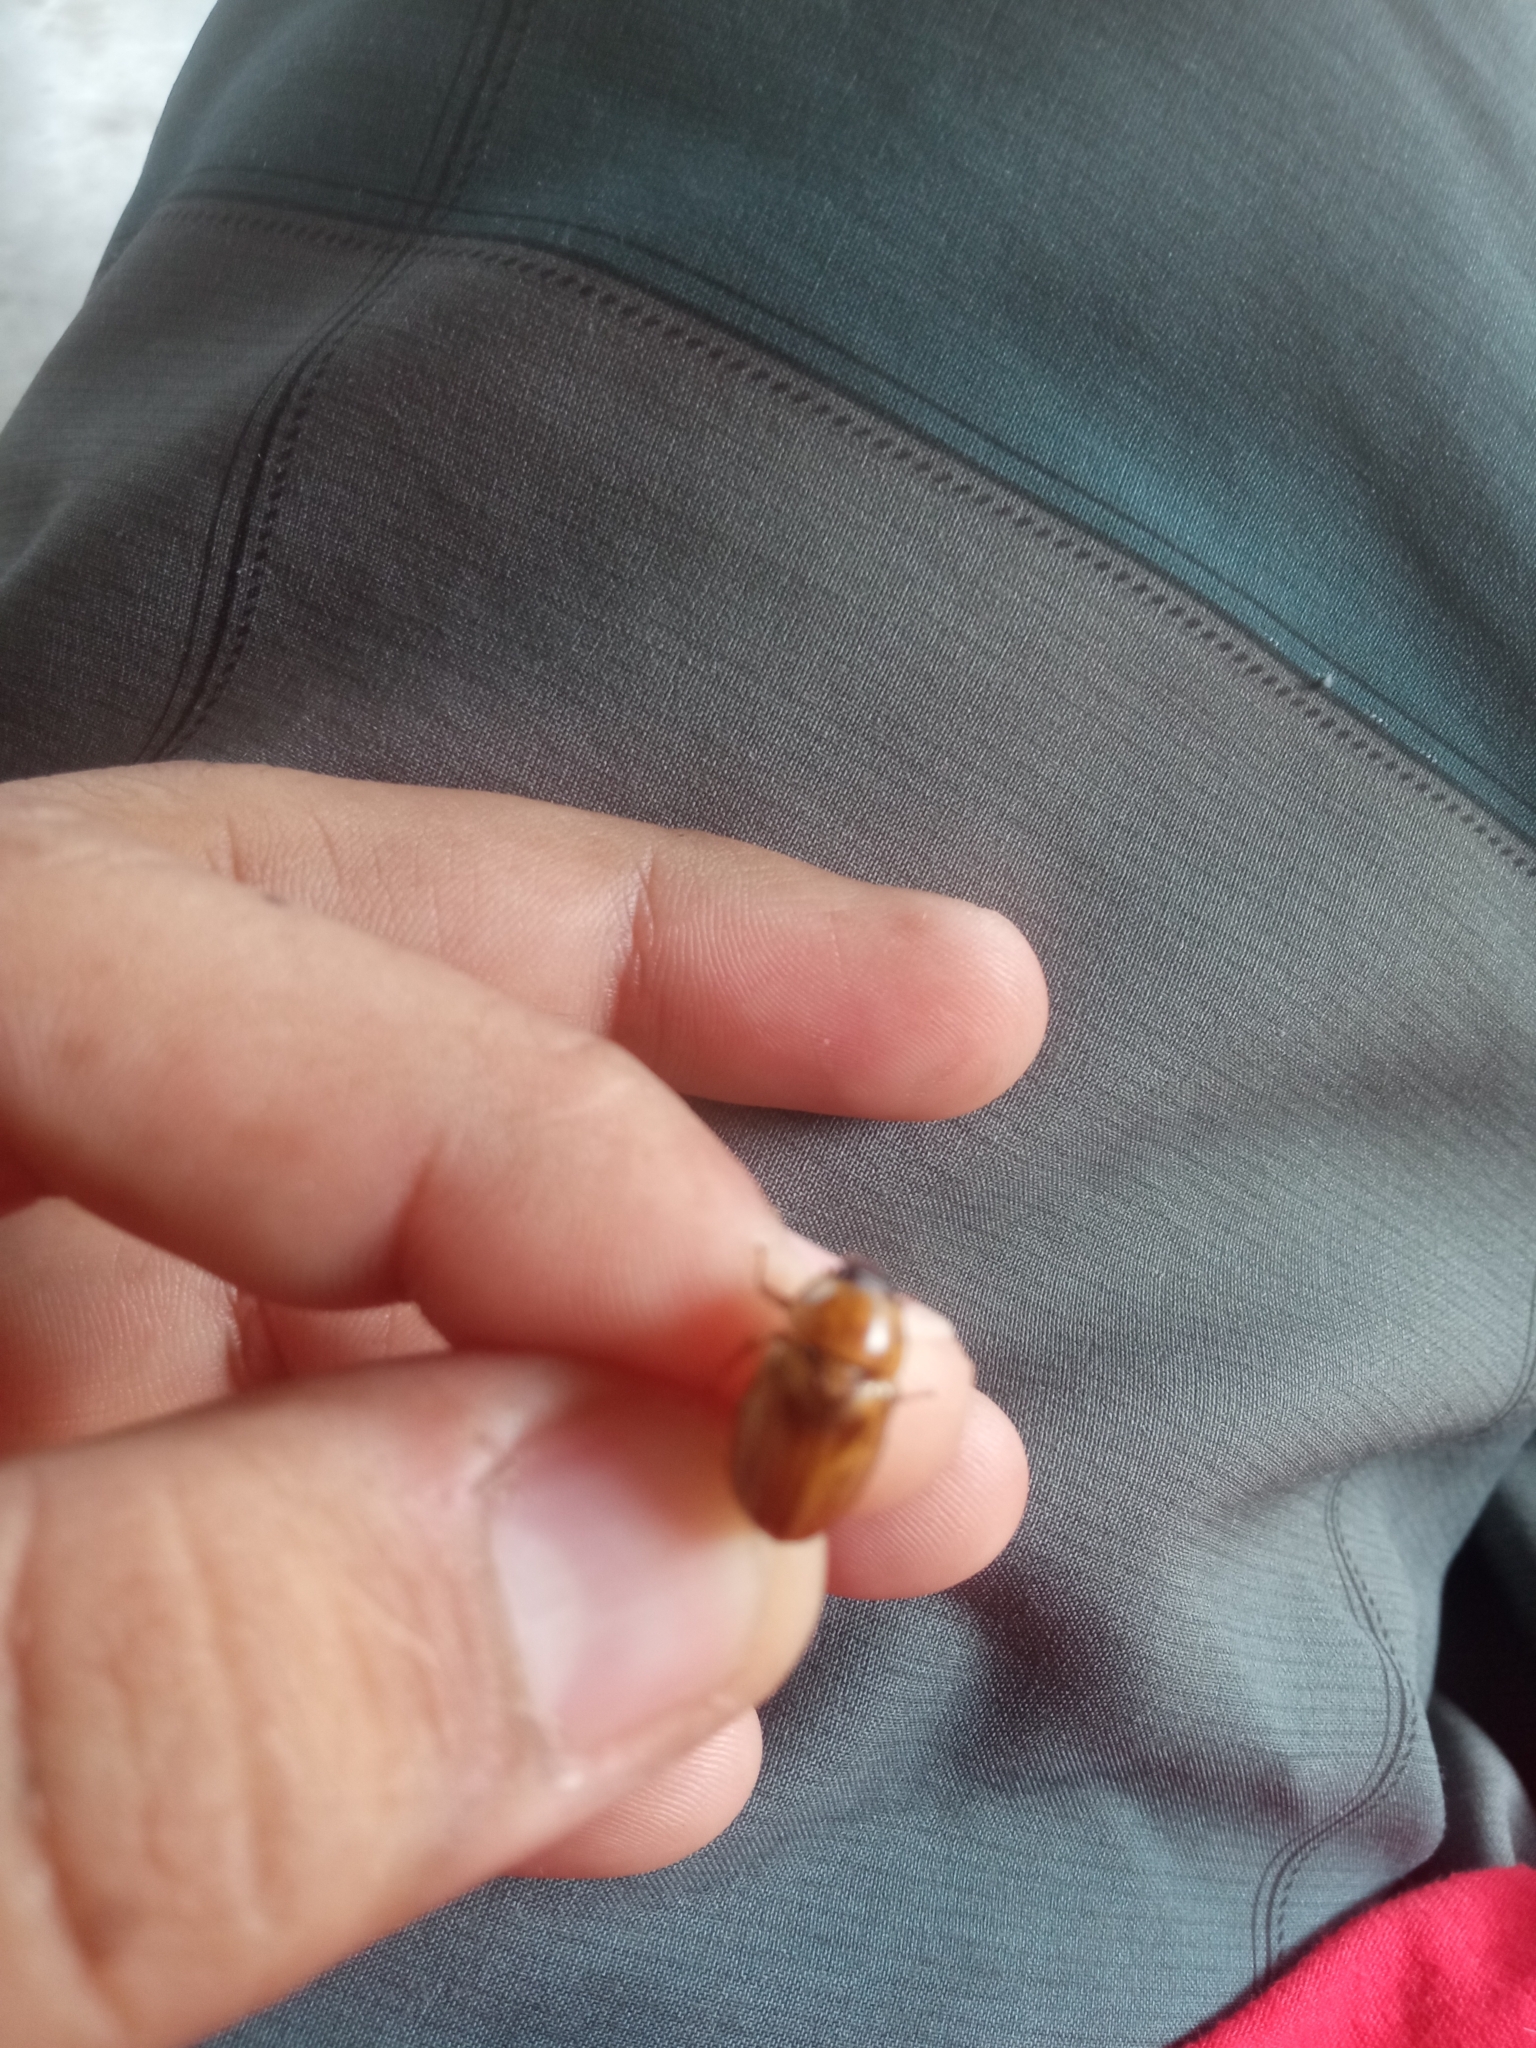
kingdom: Animalia
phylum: Arthropoda
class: Insecta
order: Coleoptera
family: Scarabaeidae
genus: Cyclocephala
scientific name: Cyclocephala lunulata
